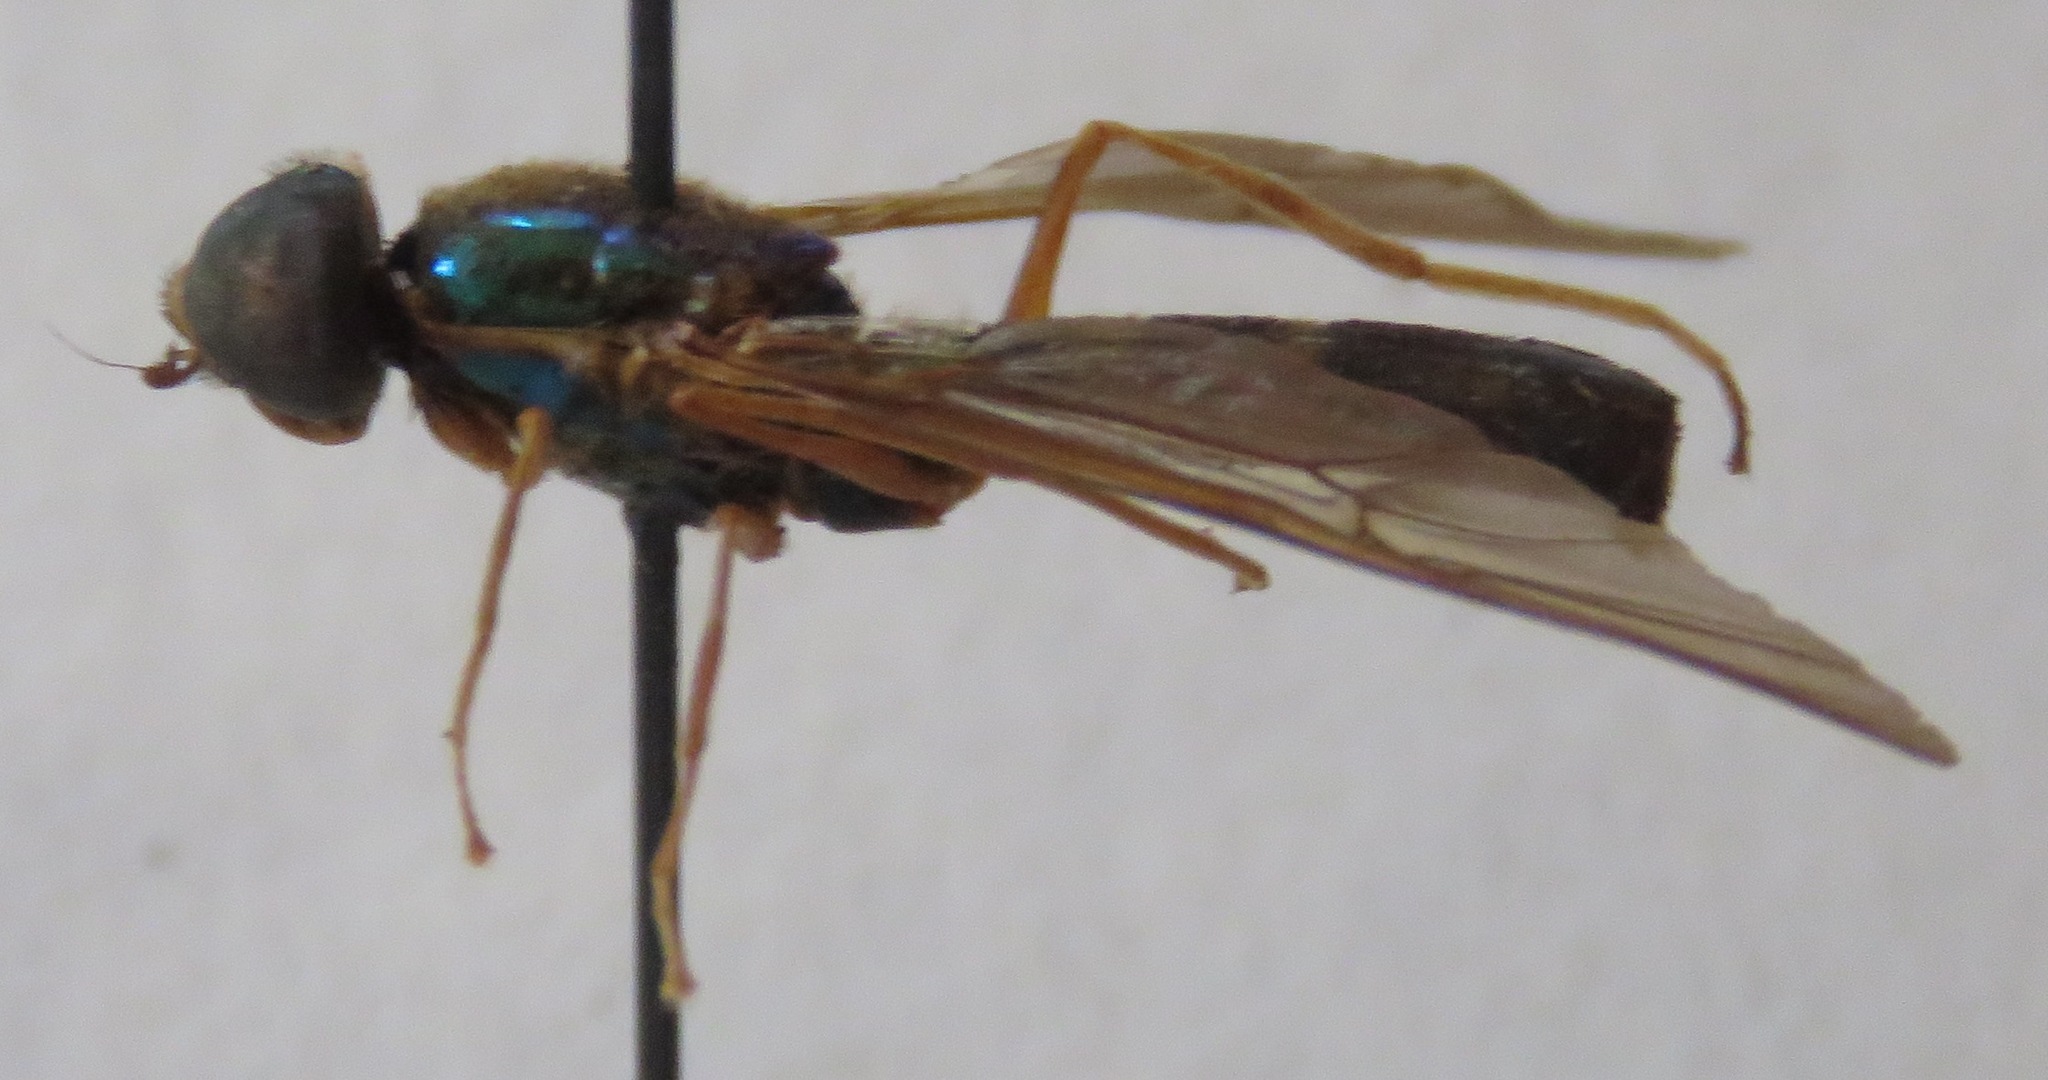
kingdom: Animalia
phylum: Arthropoda
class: Insecta
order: Diptera
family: Stratiomyidae
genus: Sargus
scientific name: Sargus speciosus
